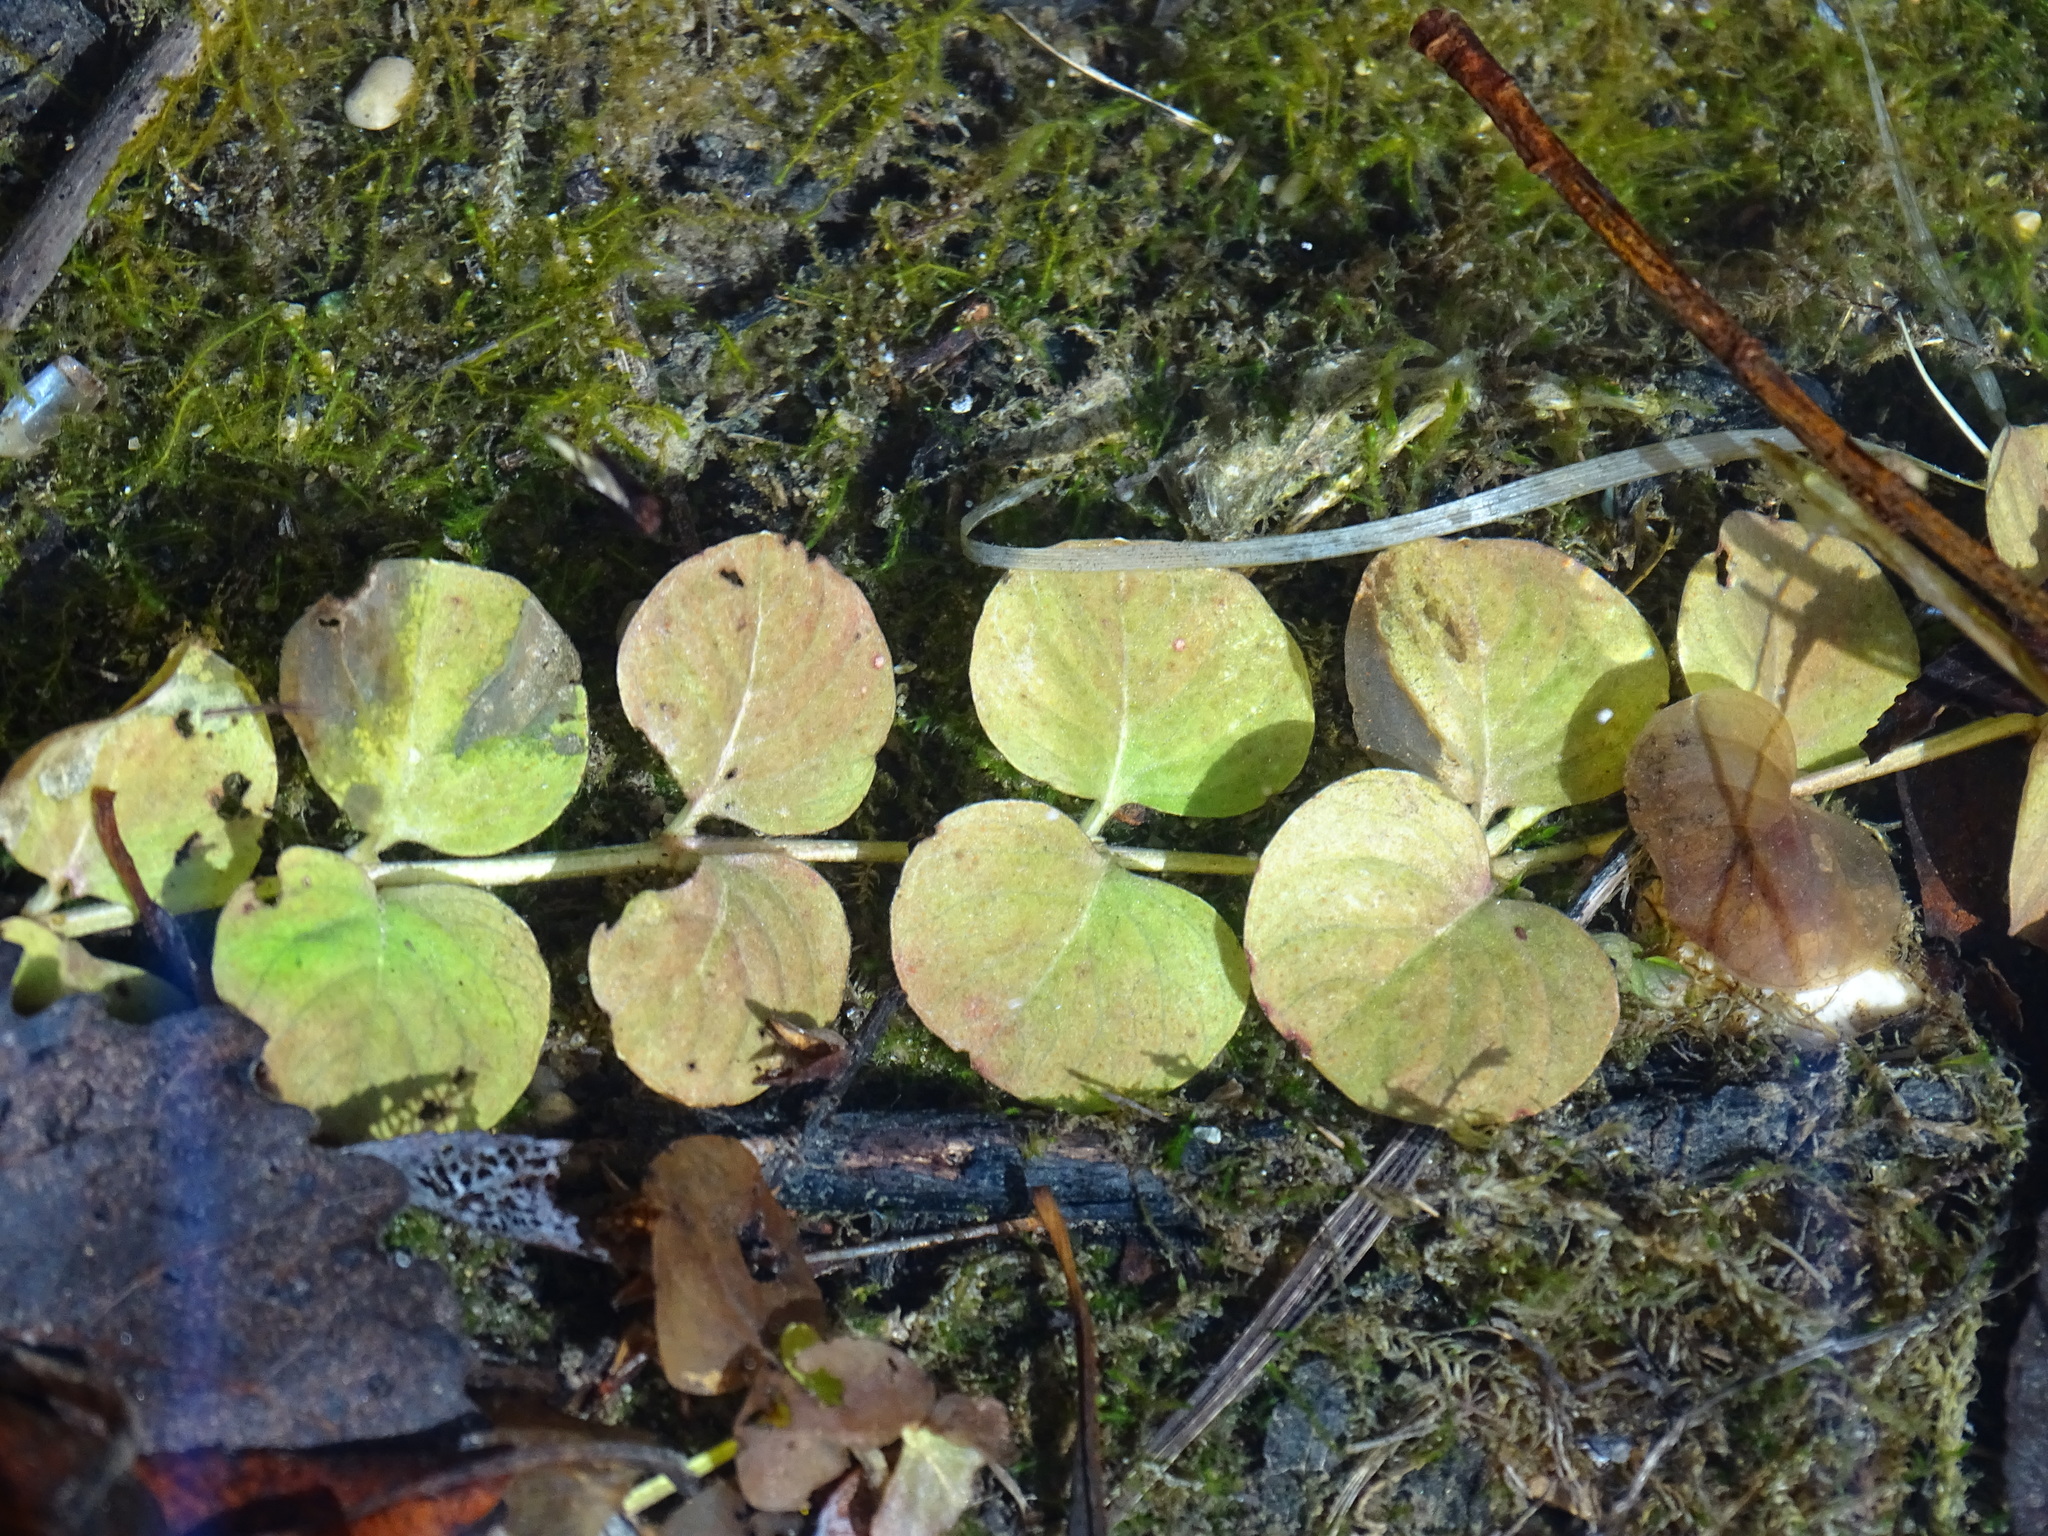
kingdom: Plantae
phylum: Tracheophyta
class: Magnoliopsida
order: Ericales
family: Primulaceae
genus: Lysimachia
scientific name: Lysimachia nummularia
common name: Moneywort
